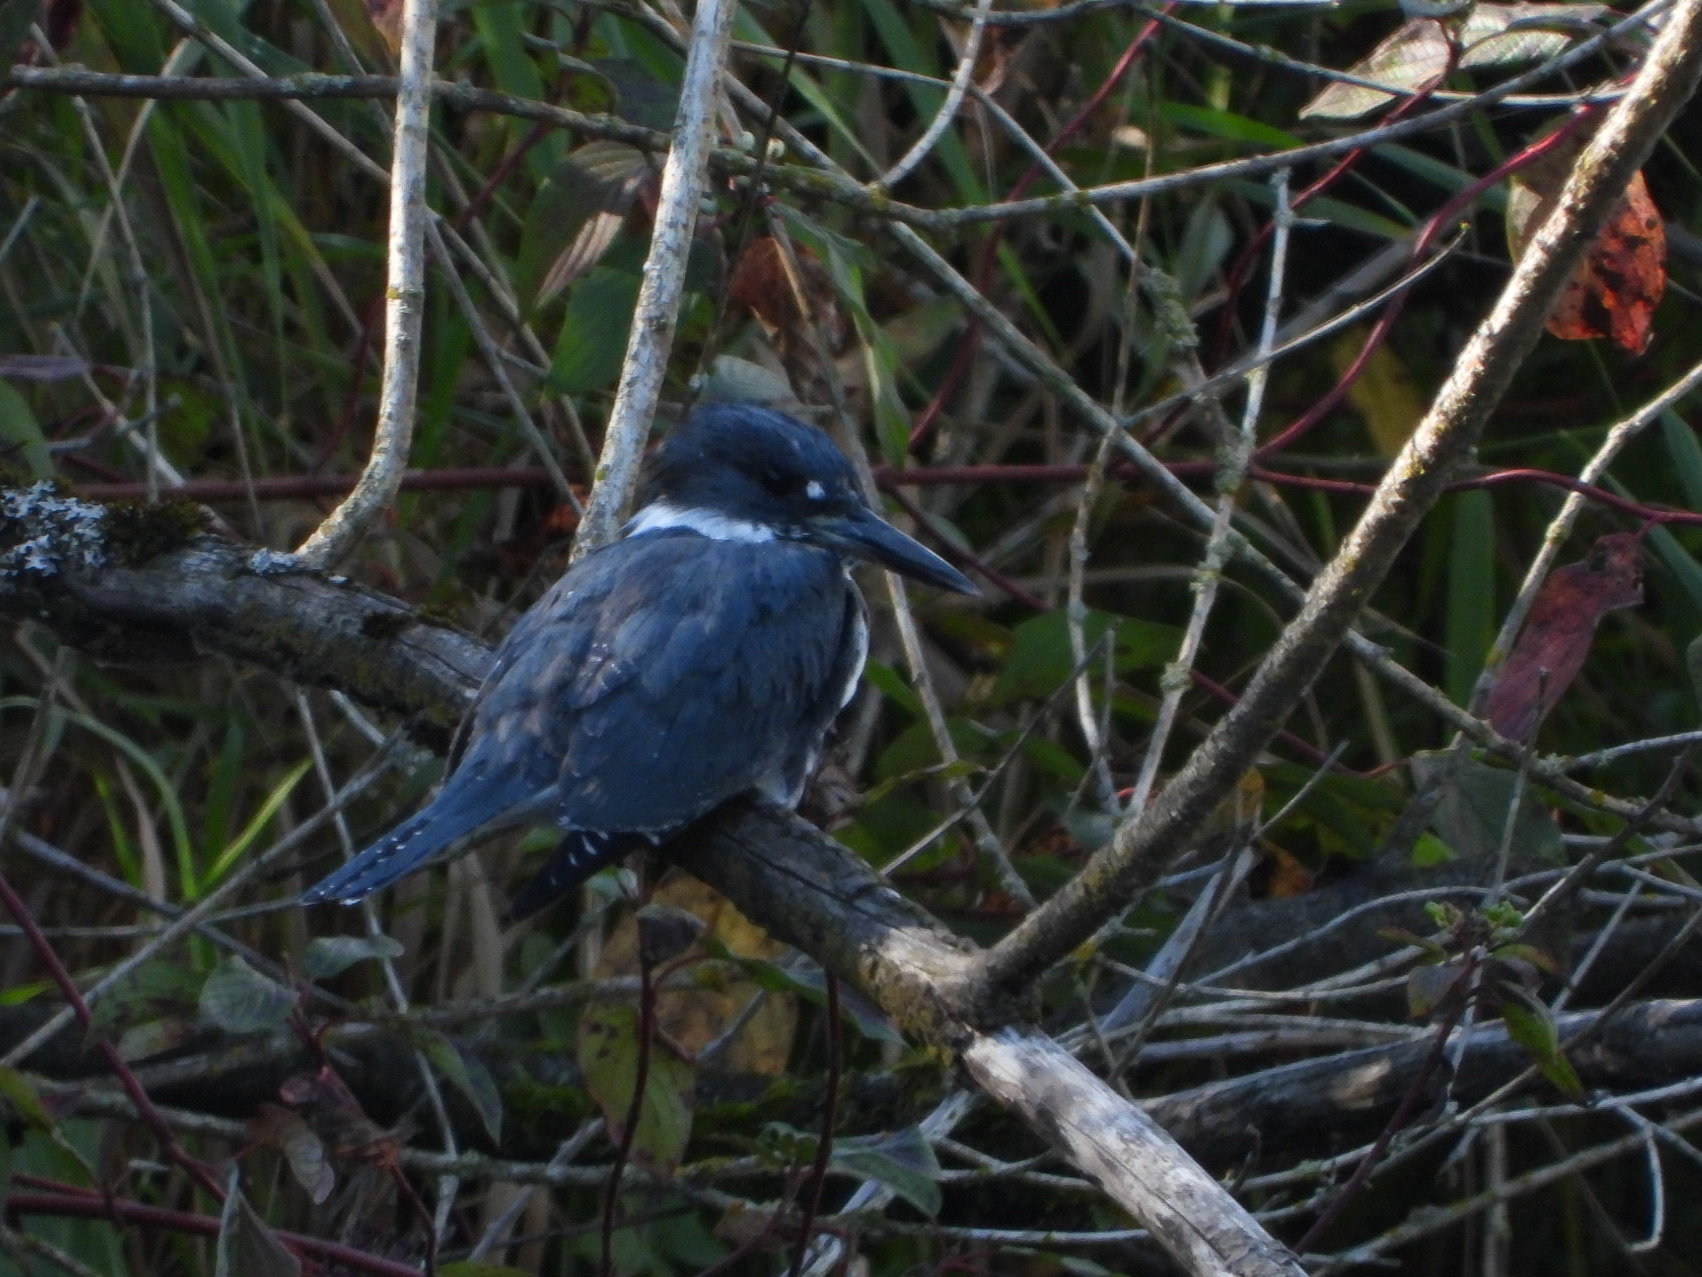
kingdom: Animalia
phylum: Chordata
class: Aves
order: Coraciiformes
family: Alcedinidae
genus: Megaceryle
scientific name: Megaceryle alcyon
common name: Belted kingfisher
